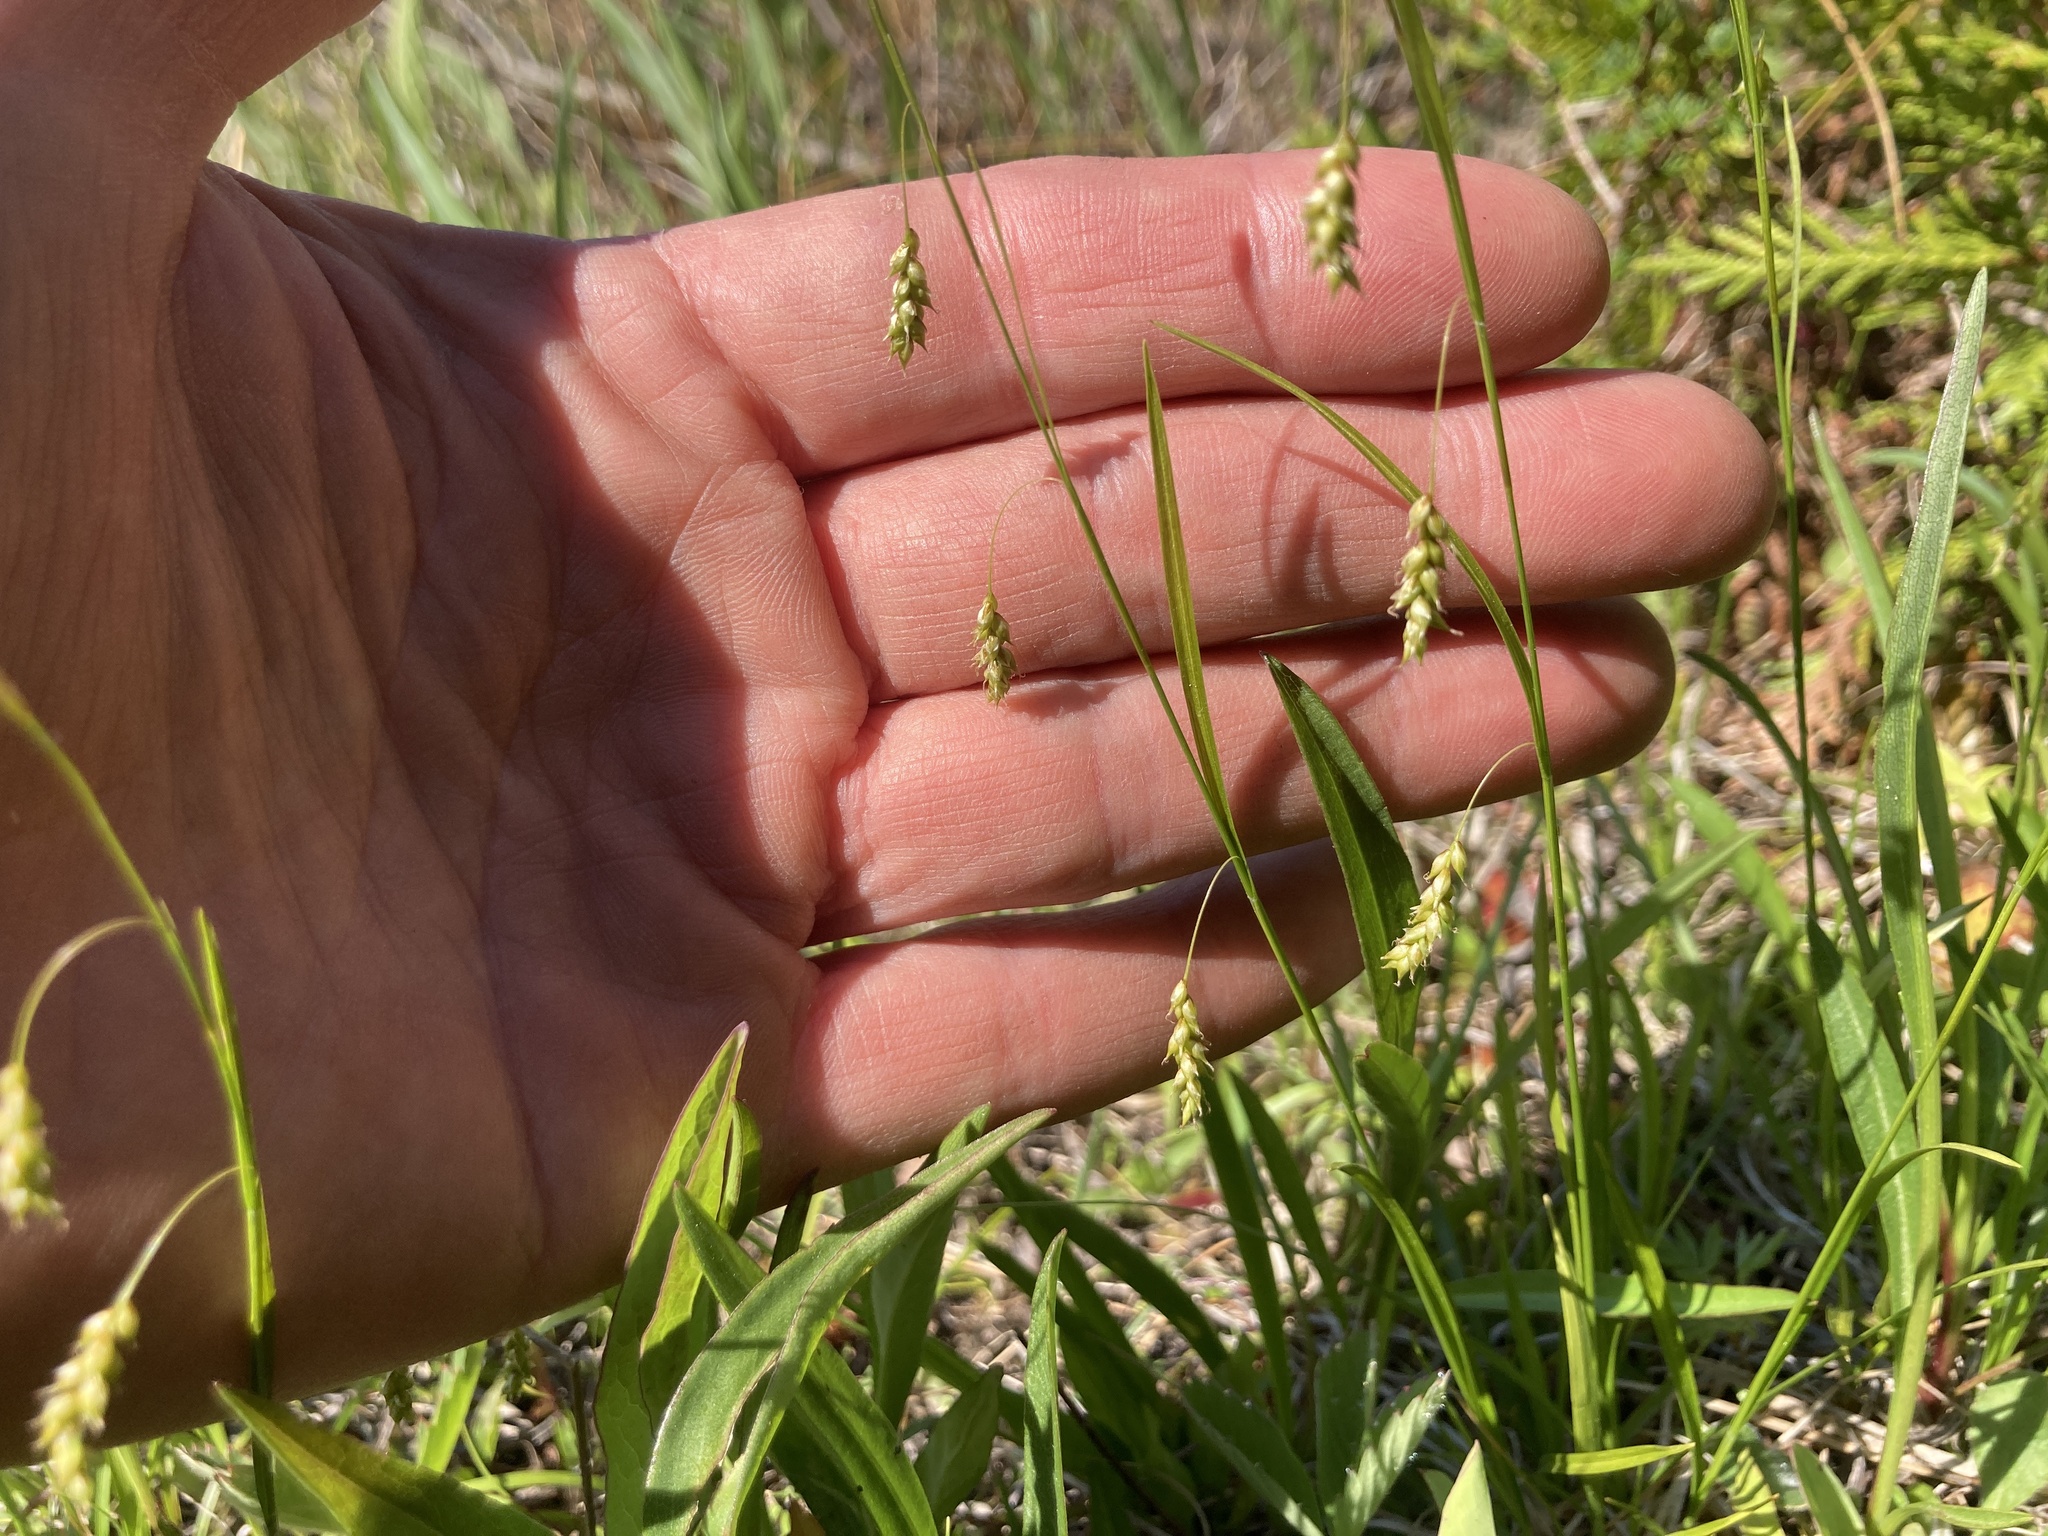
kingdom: Plantae
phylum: Tracheophyta
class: Liliopsida
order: Poales
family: Cyperaceae
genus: Carex
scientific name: Carex capillaris
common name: Hair sedge
